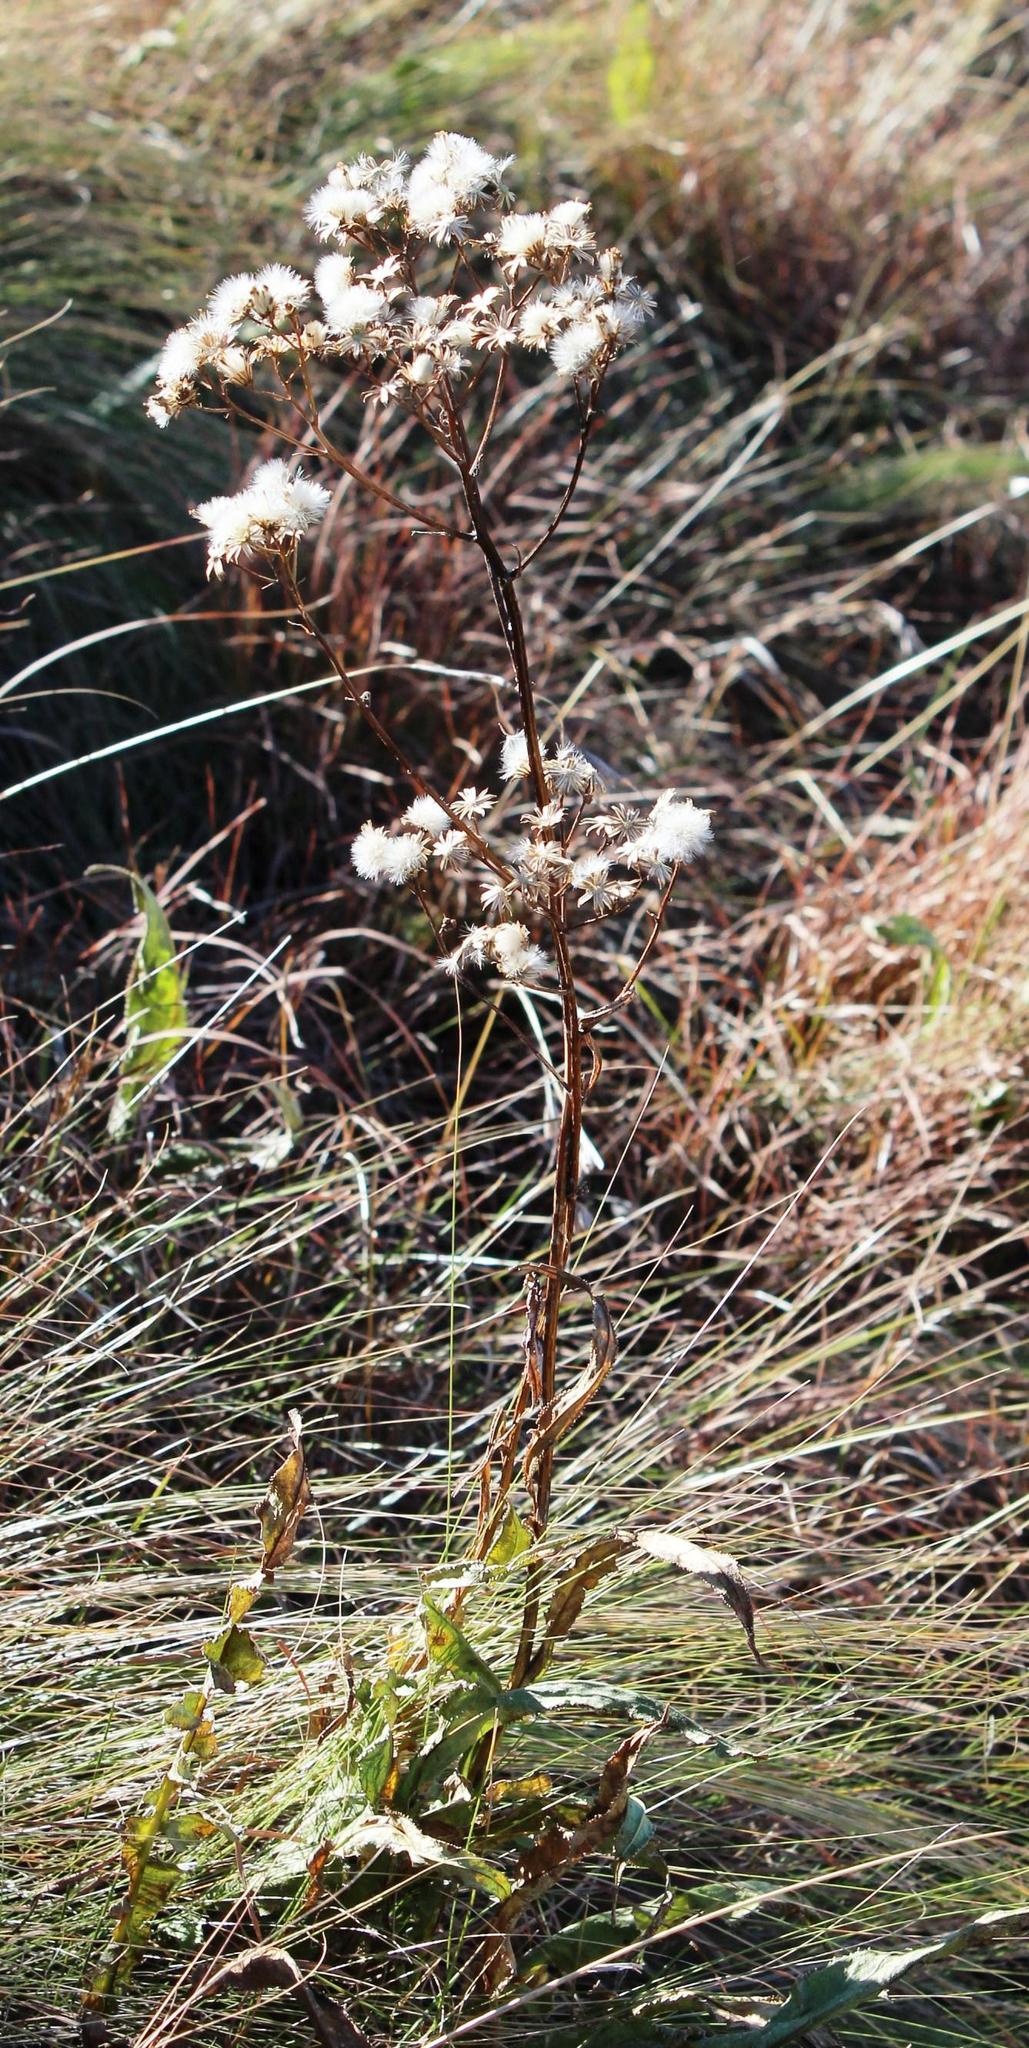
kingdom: Plantae
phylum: Tracheophyta
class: Magnoliopsida
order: Asterales
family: Asteraceae
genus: Senecio
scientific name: Senecio inornatus
